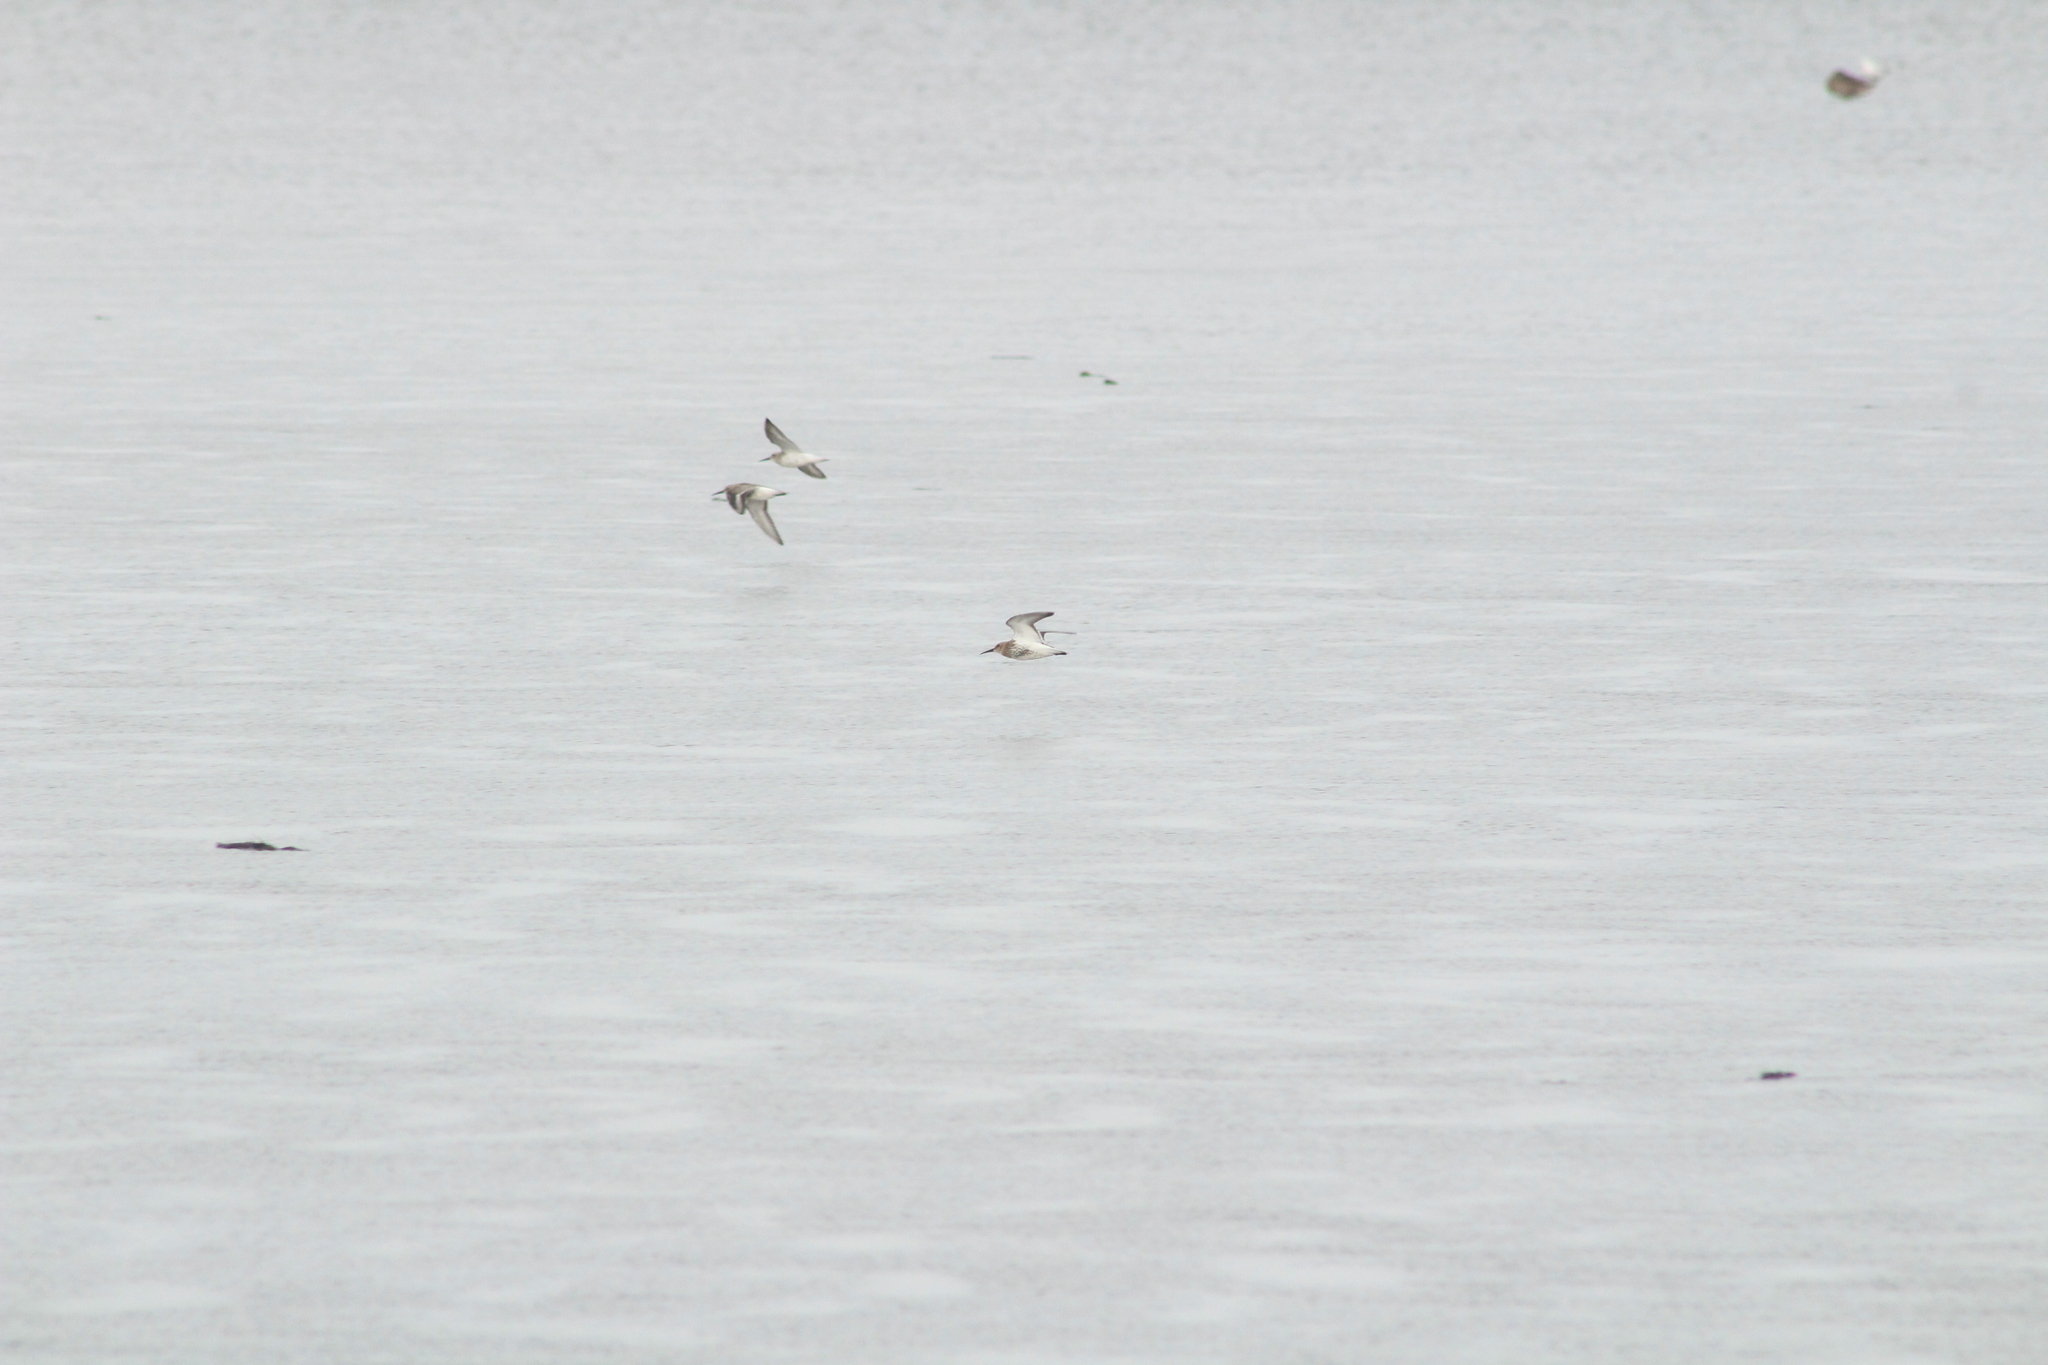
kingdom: Animalia
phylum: Chordata
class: Aves
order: Charadriiformes
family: Scolopacidae
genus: Calidris
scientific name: Calidris alpina
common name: Dunlin
